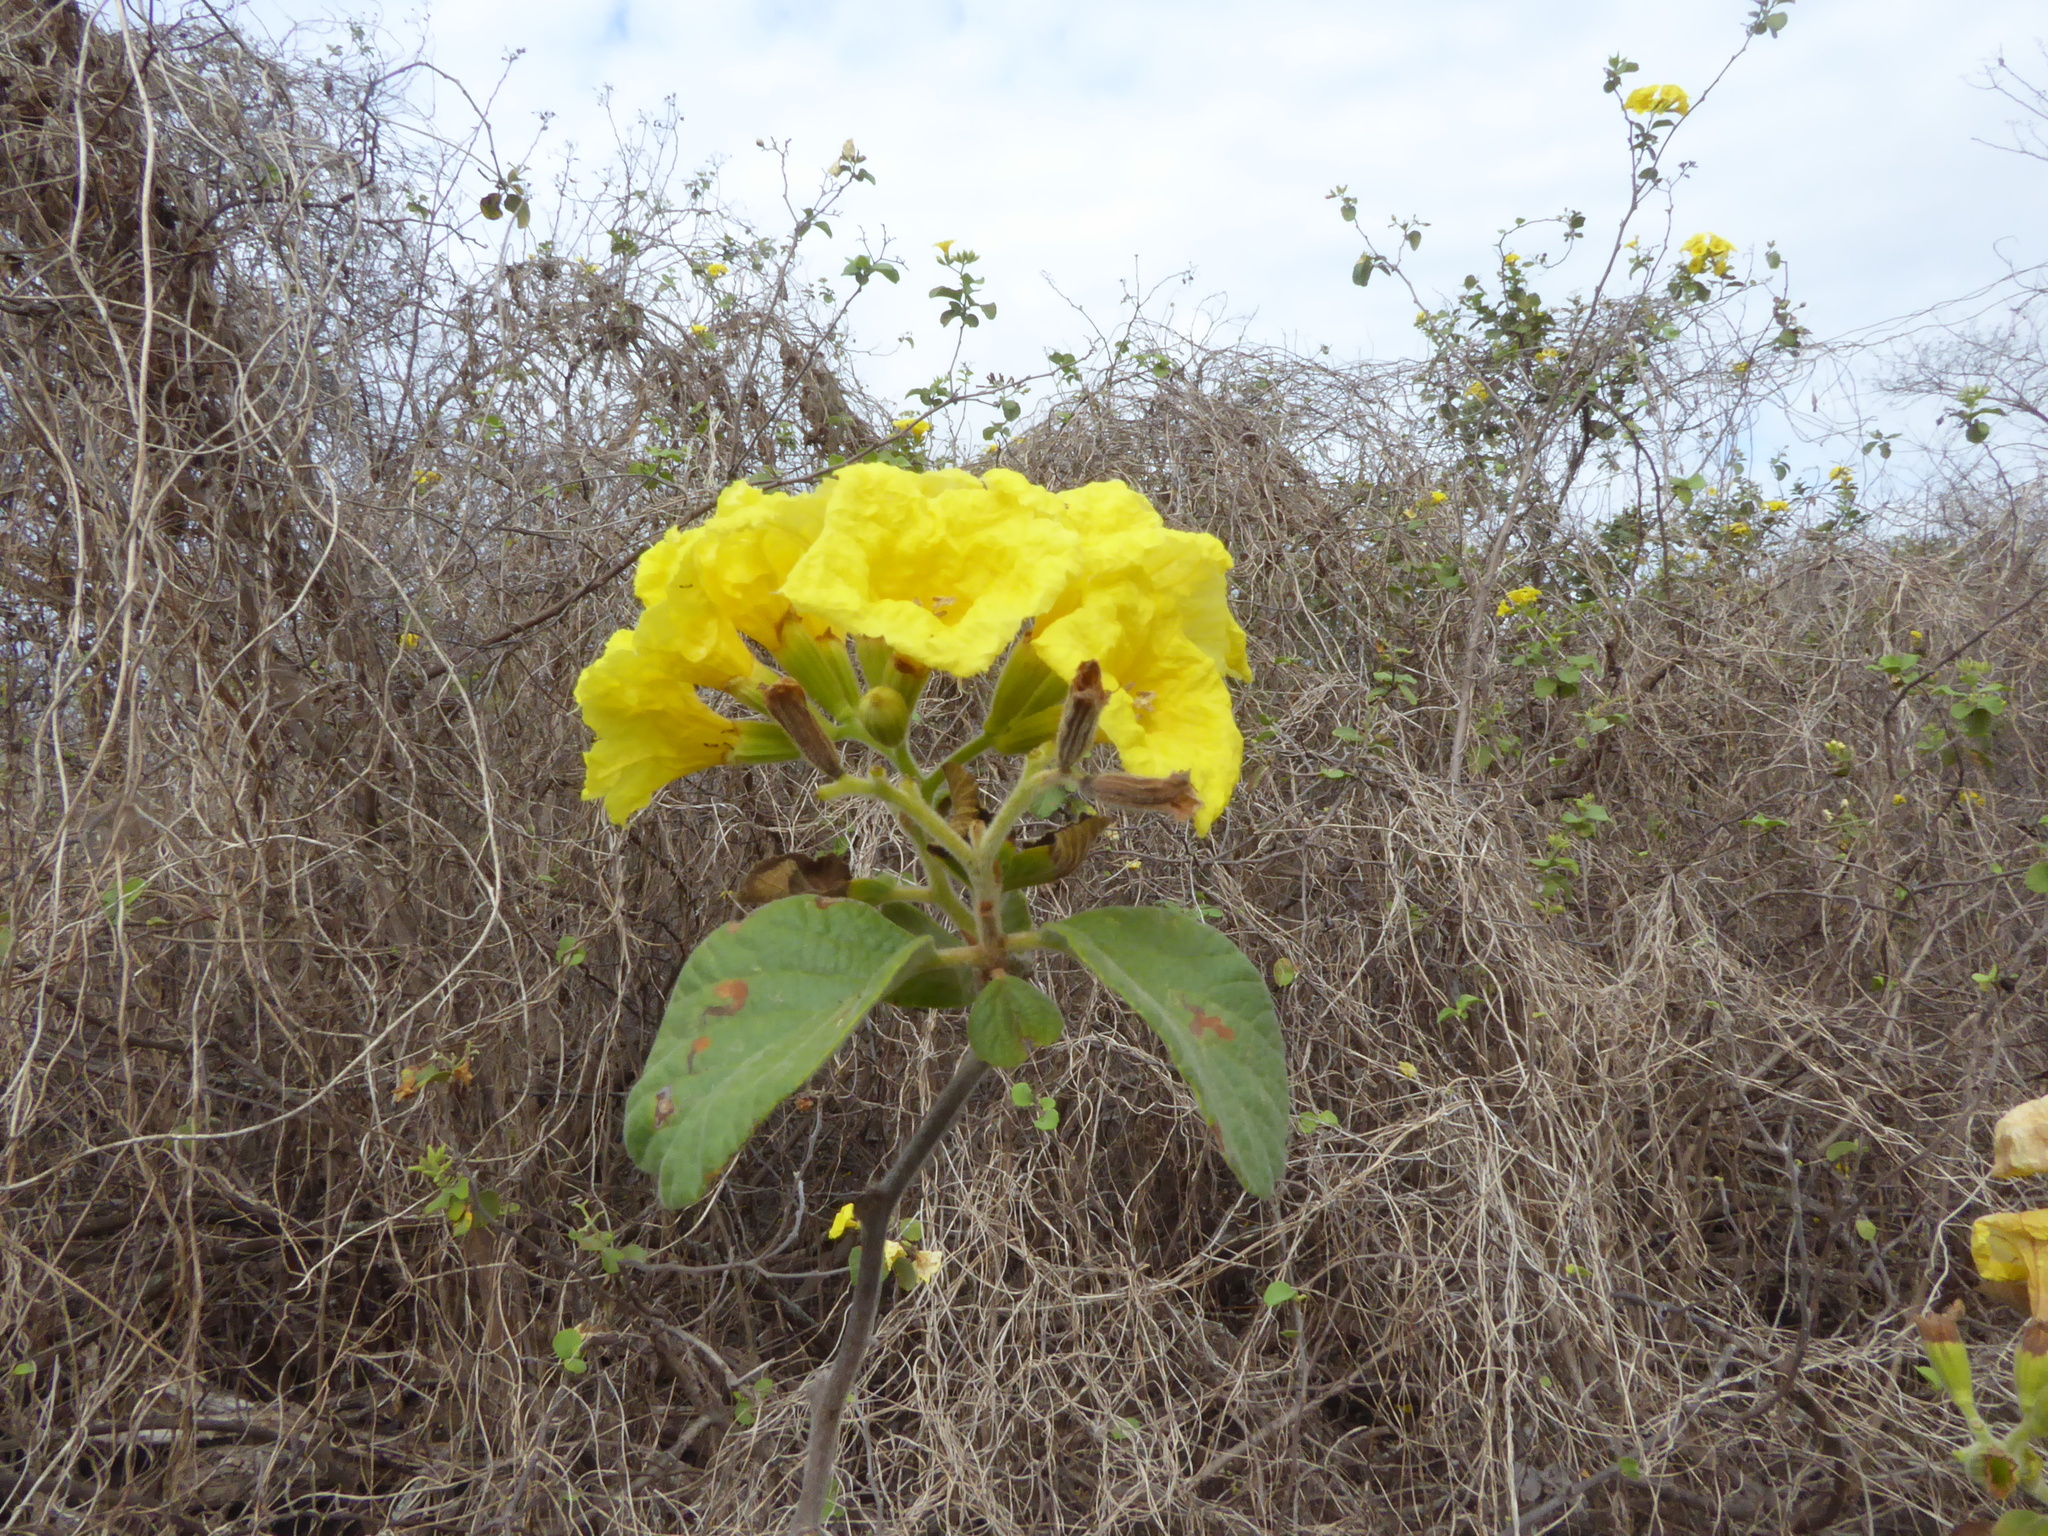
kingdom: Plantae
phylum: Tracheophyta
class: Magnoliopsida
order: Boraginales
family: Cordiaceae
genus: Cordia
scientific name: Cordia lutea
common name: Yellow geiger
